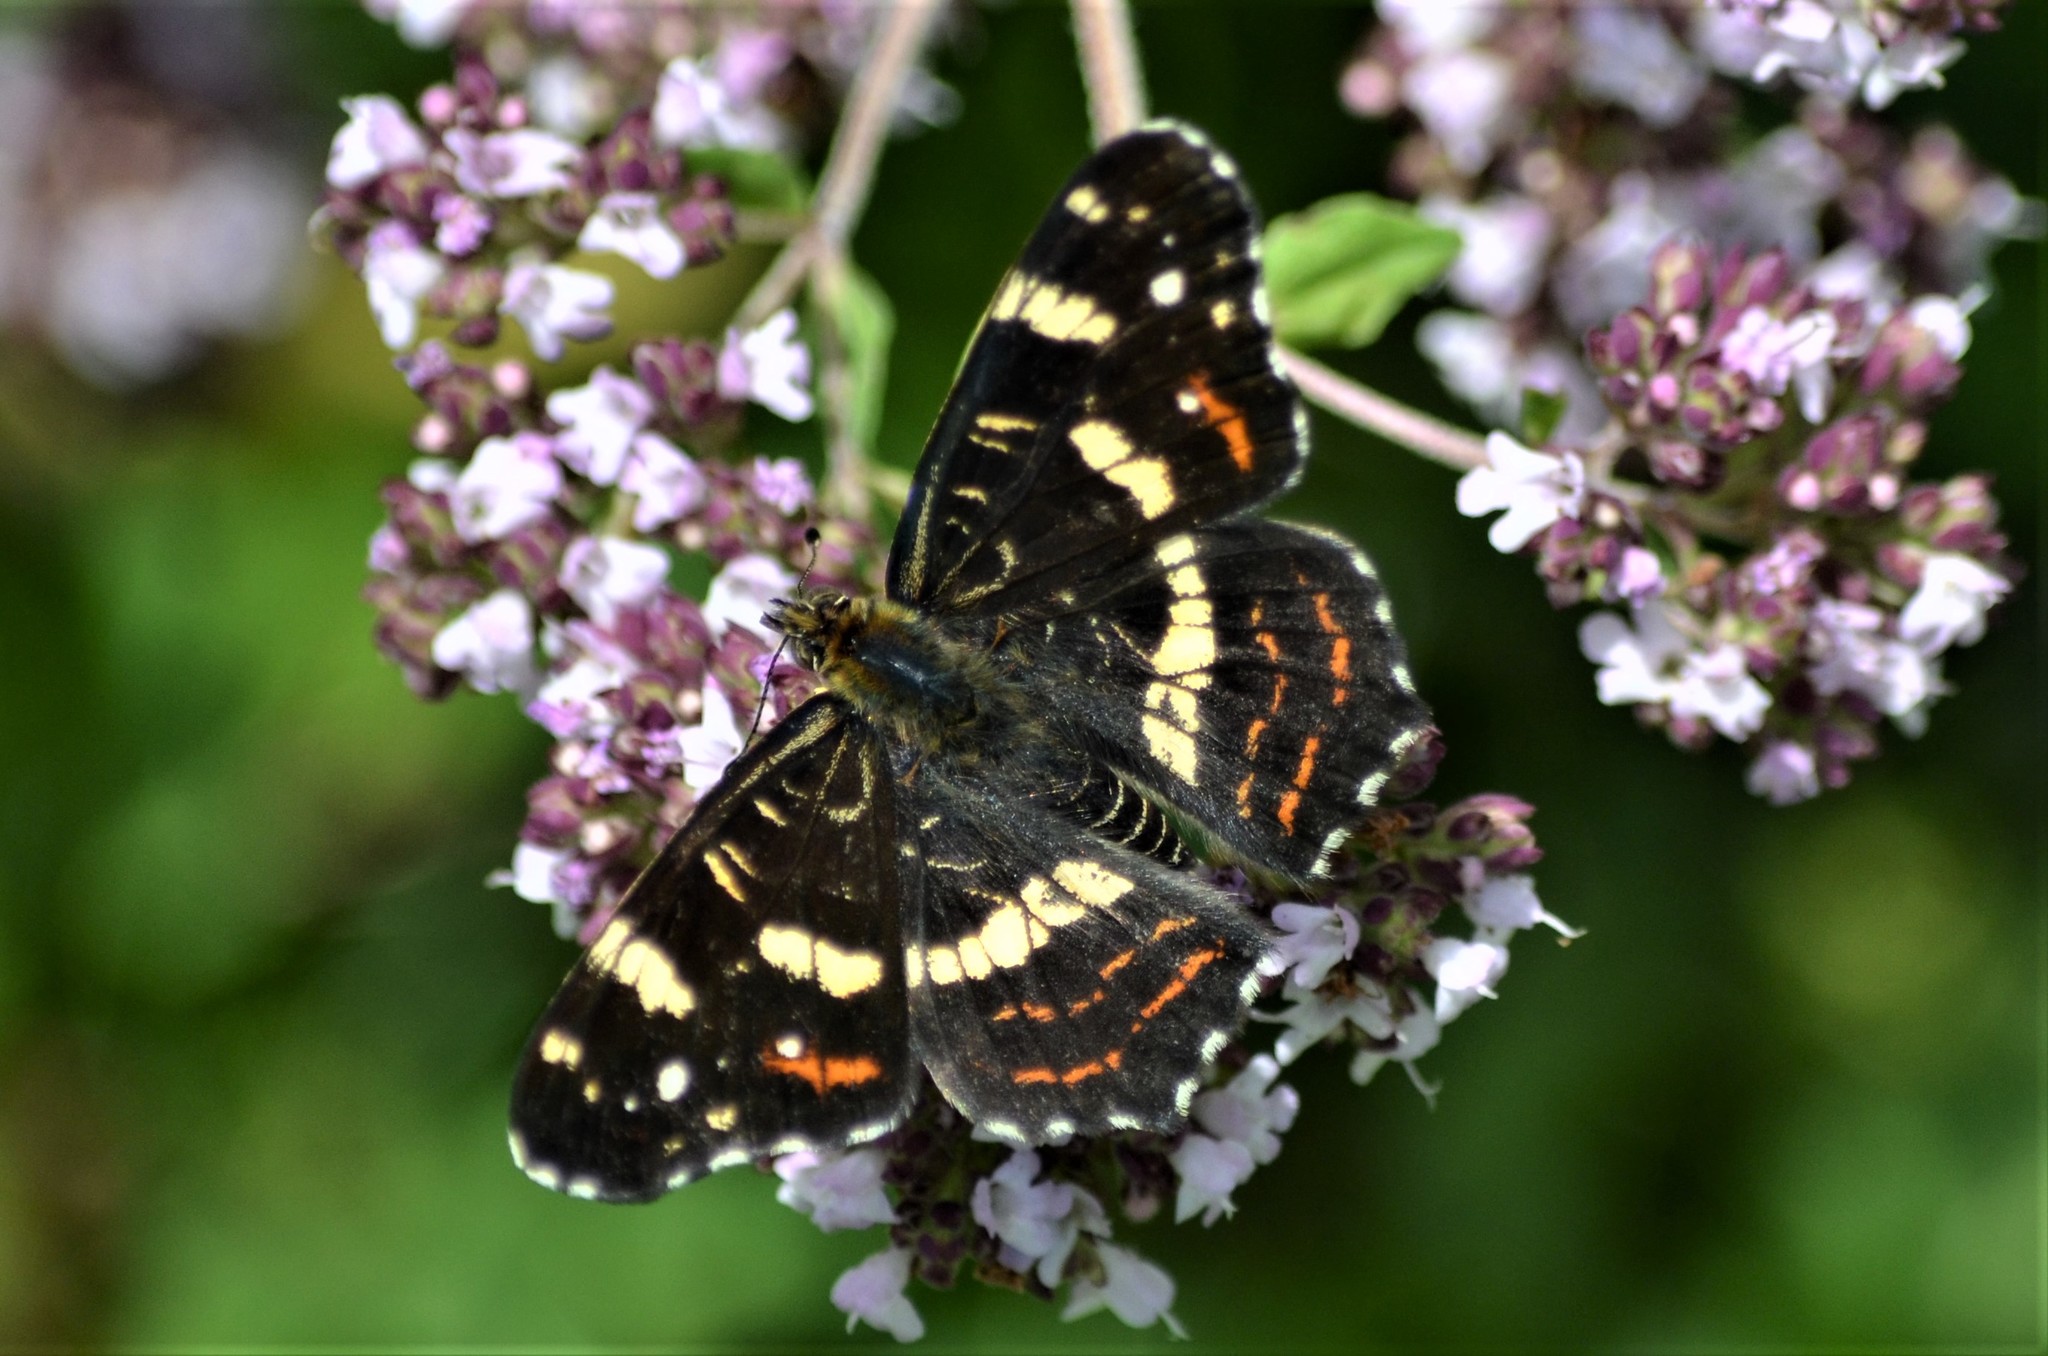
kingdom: Animalia
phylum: Arthropoda
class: Insecta
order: Lepidoptera
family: Nymphalidae
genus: Araschnia
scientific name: Araschnia levana
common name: Map butterfly
